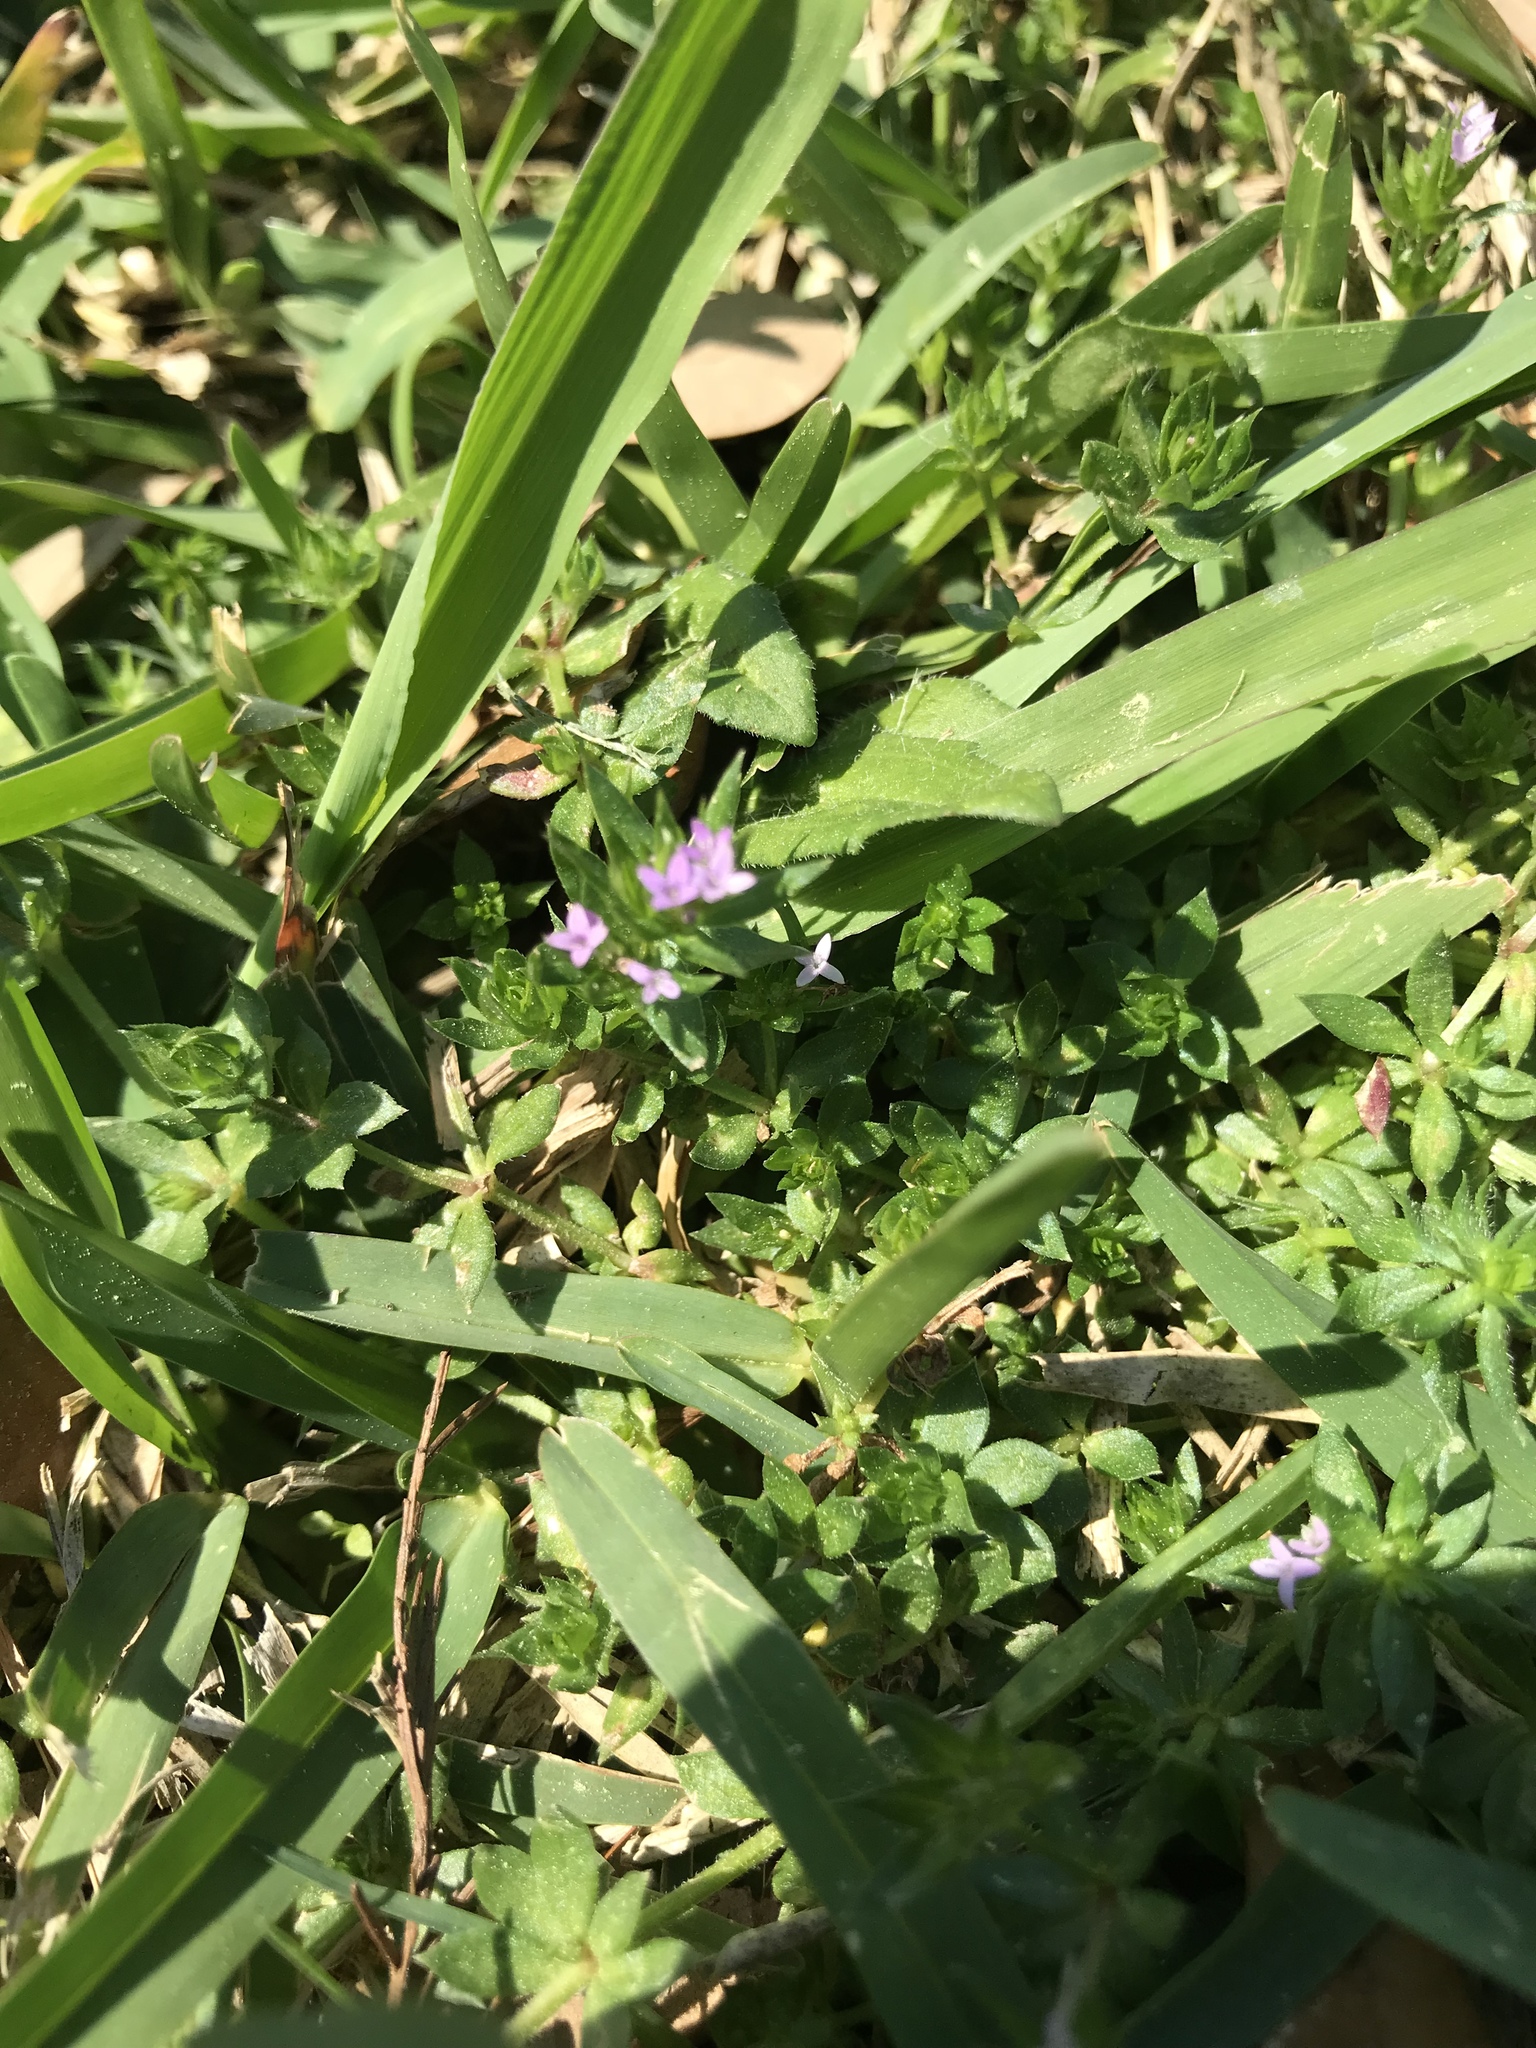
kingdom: Plantae
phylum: Tracheophyta
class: Magnoliopsida
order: Gentianales
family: Rubiaceae
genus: Sherardia
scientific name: Sherardia arvensis
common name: Field madder
